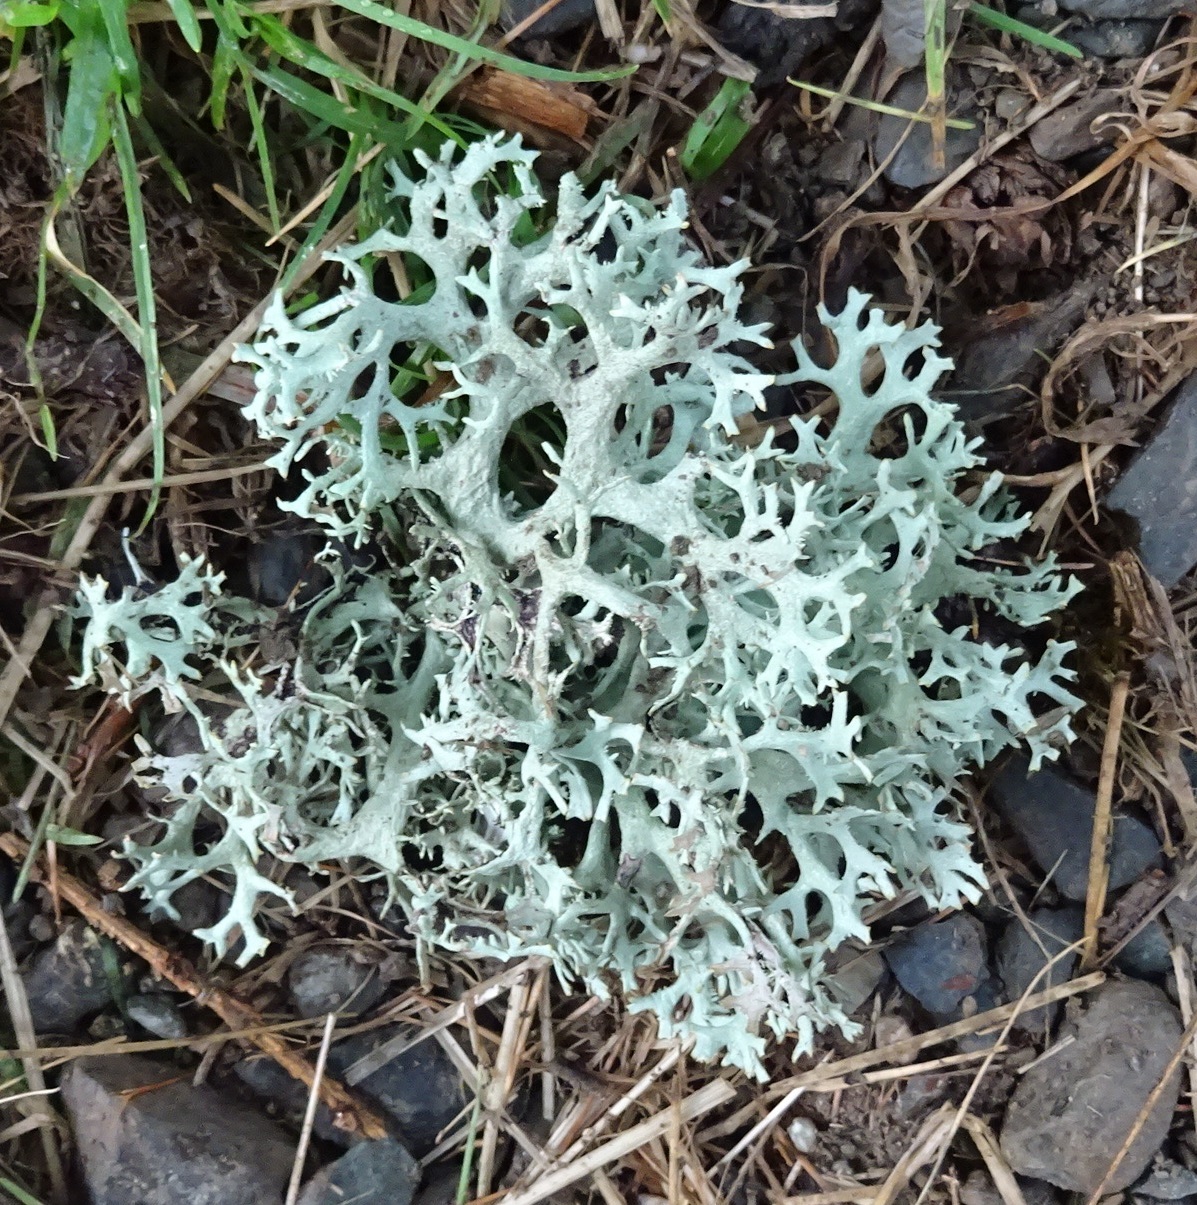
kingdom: Fungi
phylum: Ascomycota
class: Lecanoromycetes
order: Lecanorales
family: Parmeliaceae
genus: Pseudevernia
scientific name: Pseudevernia furfuracea
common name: Tree moss
